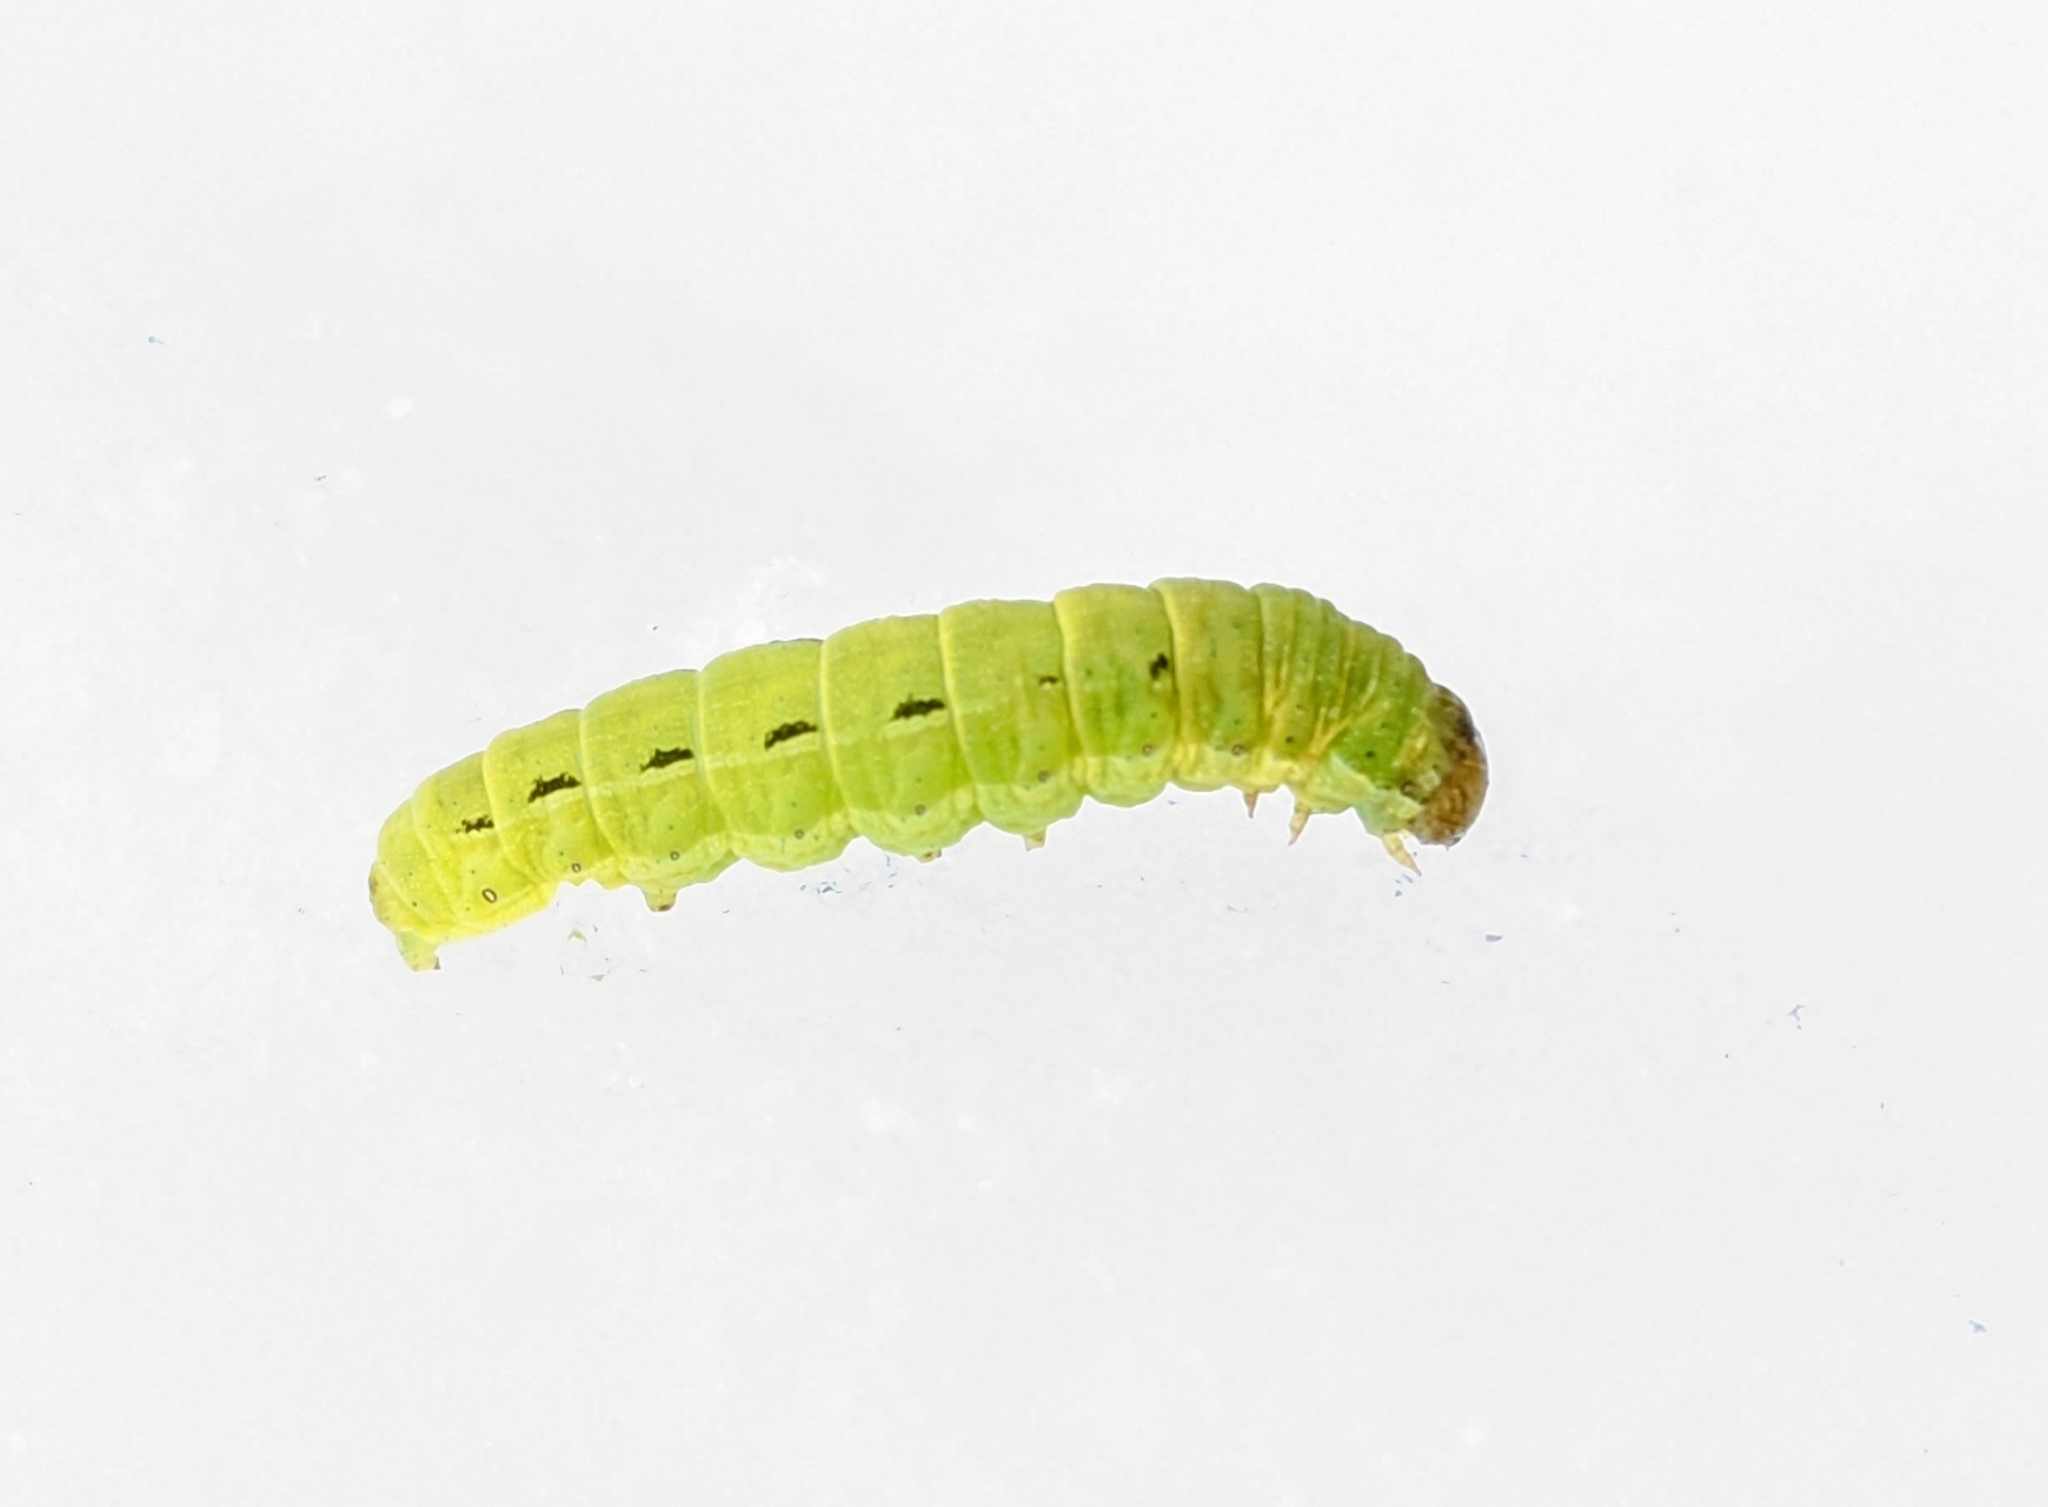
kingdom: Animalia
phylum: Arthropoda
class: Insecta
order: Lepidoptera
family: Noctuidae
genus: Noctua
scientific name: Noctua pronuba
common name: Large yellow underwing
